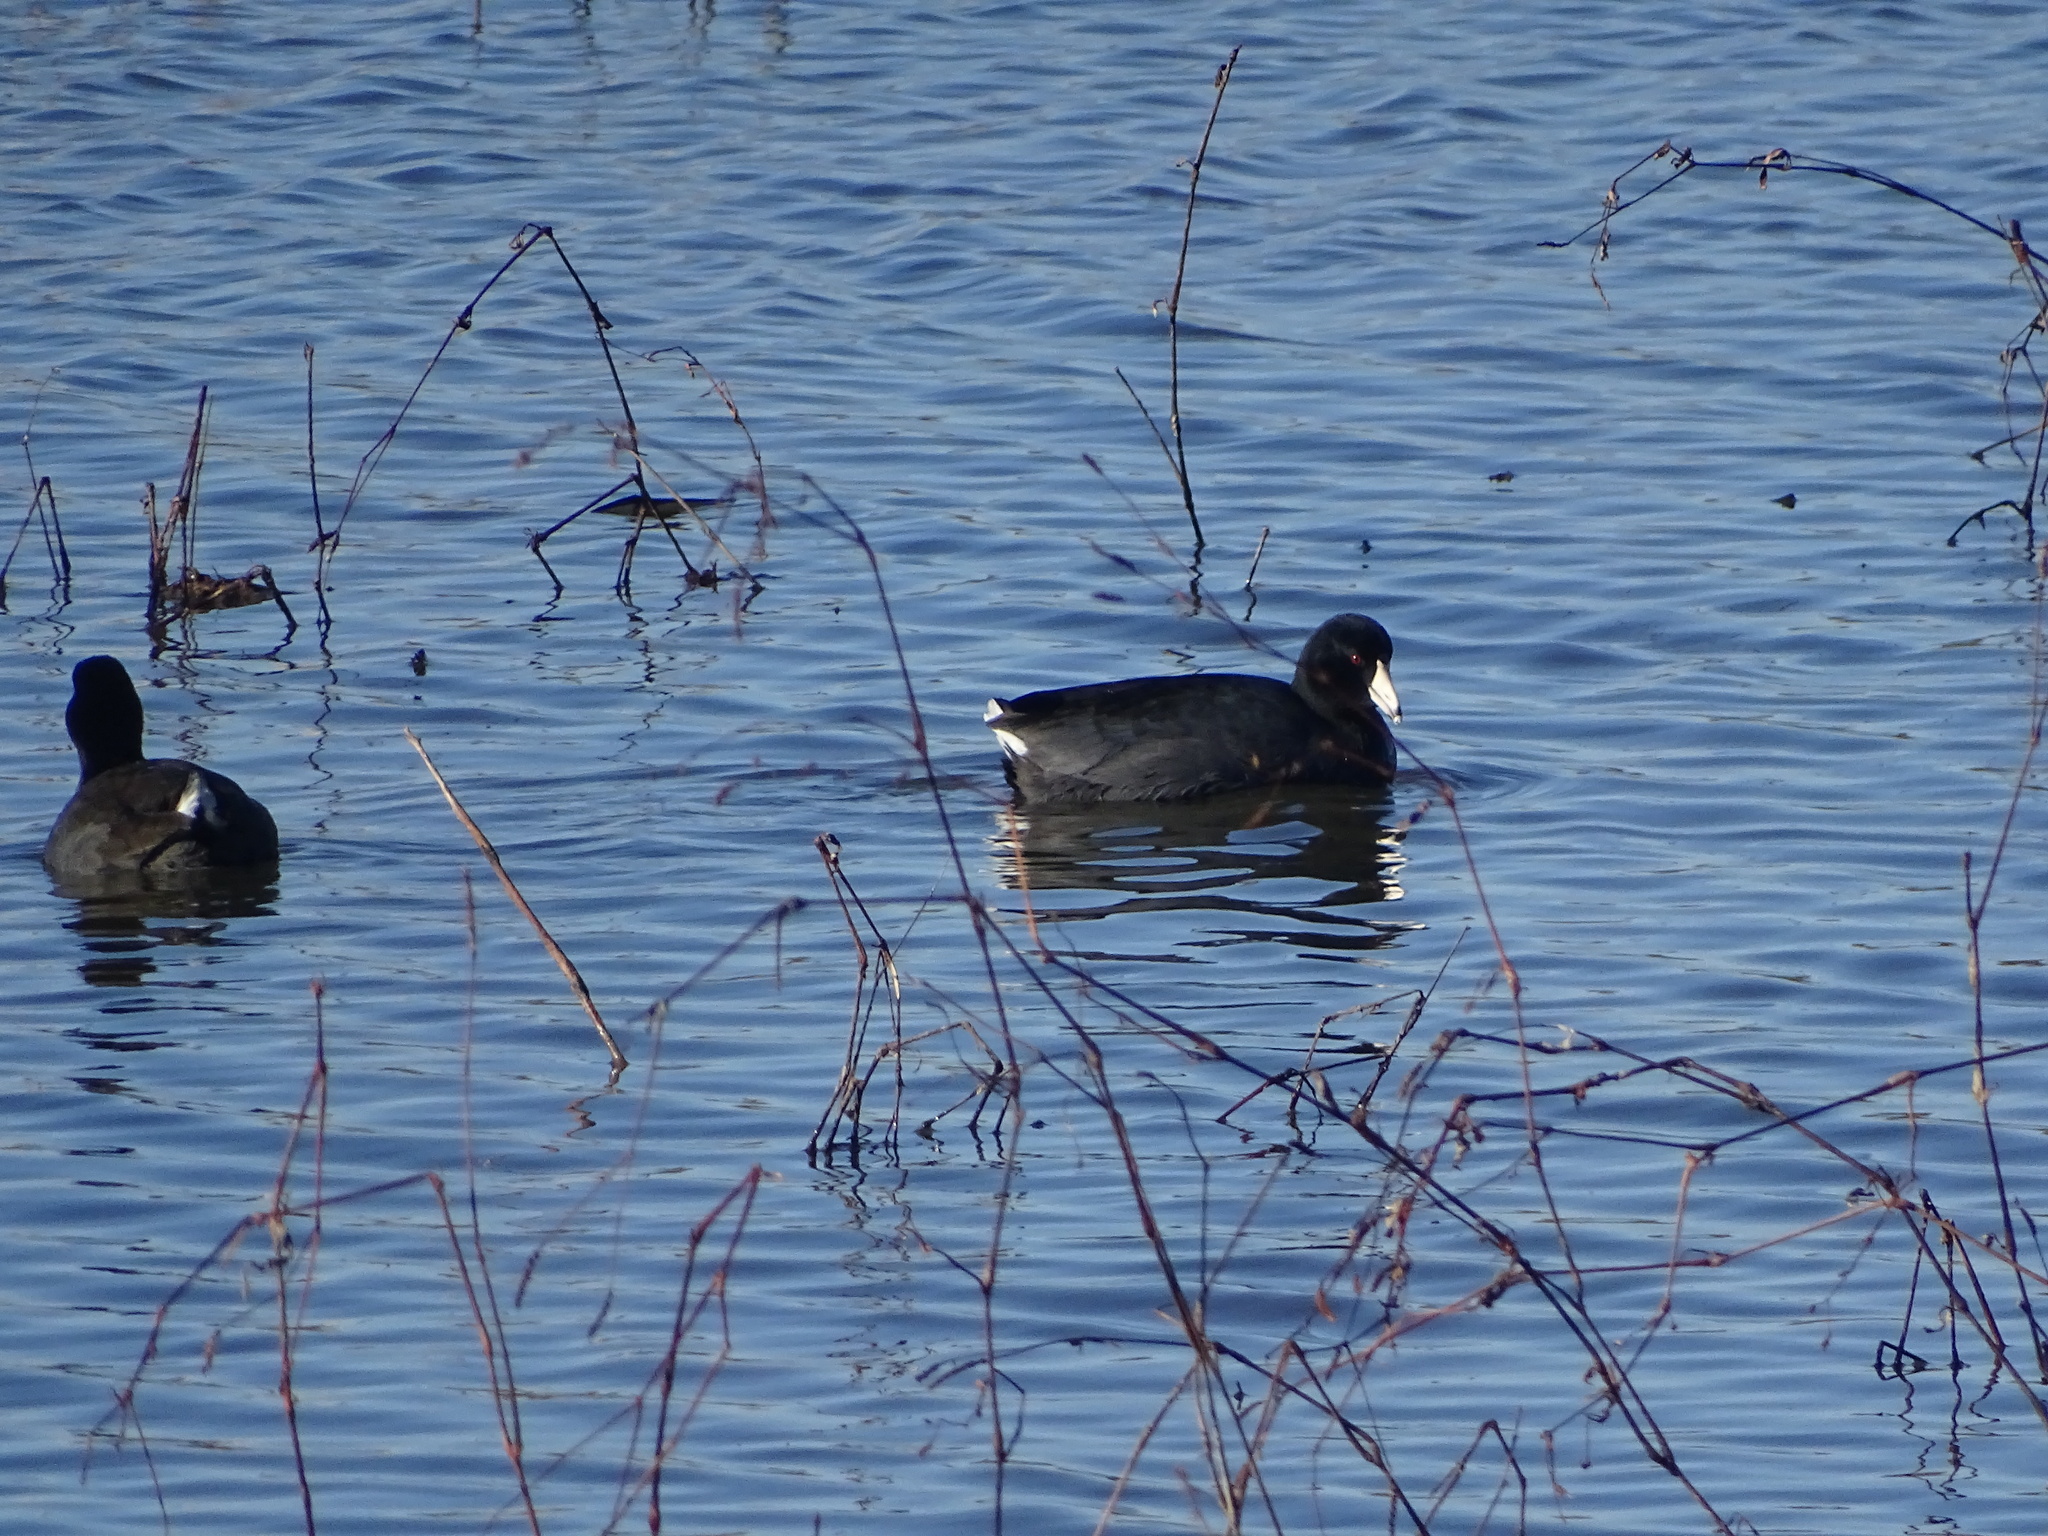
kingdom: Animalia
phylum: Chordata
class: Aves
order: Gruiformes
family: Rallidae
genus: Fulica
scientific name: Fulica americana
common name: American coot
